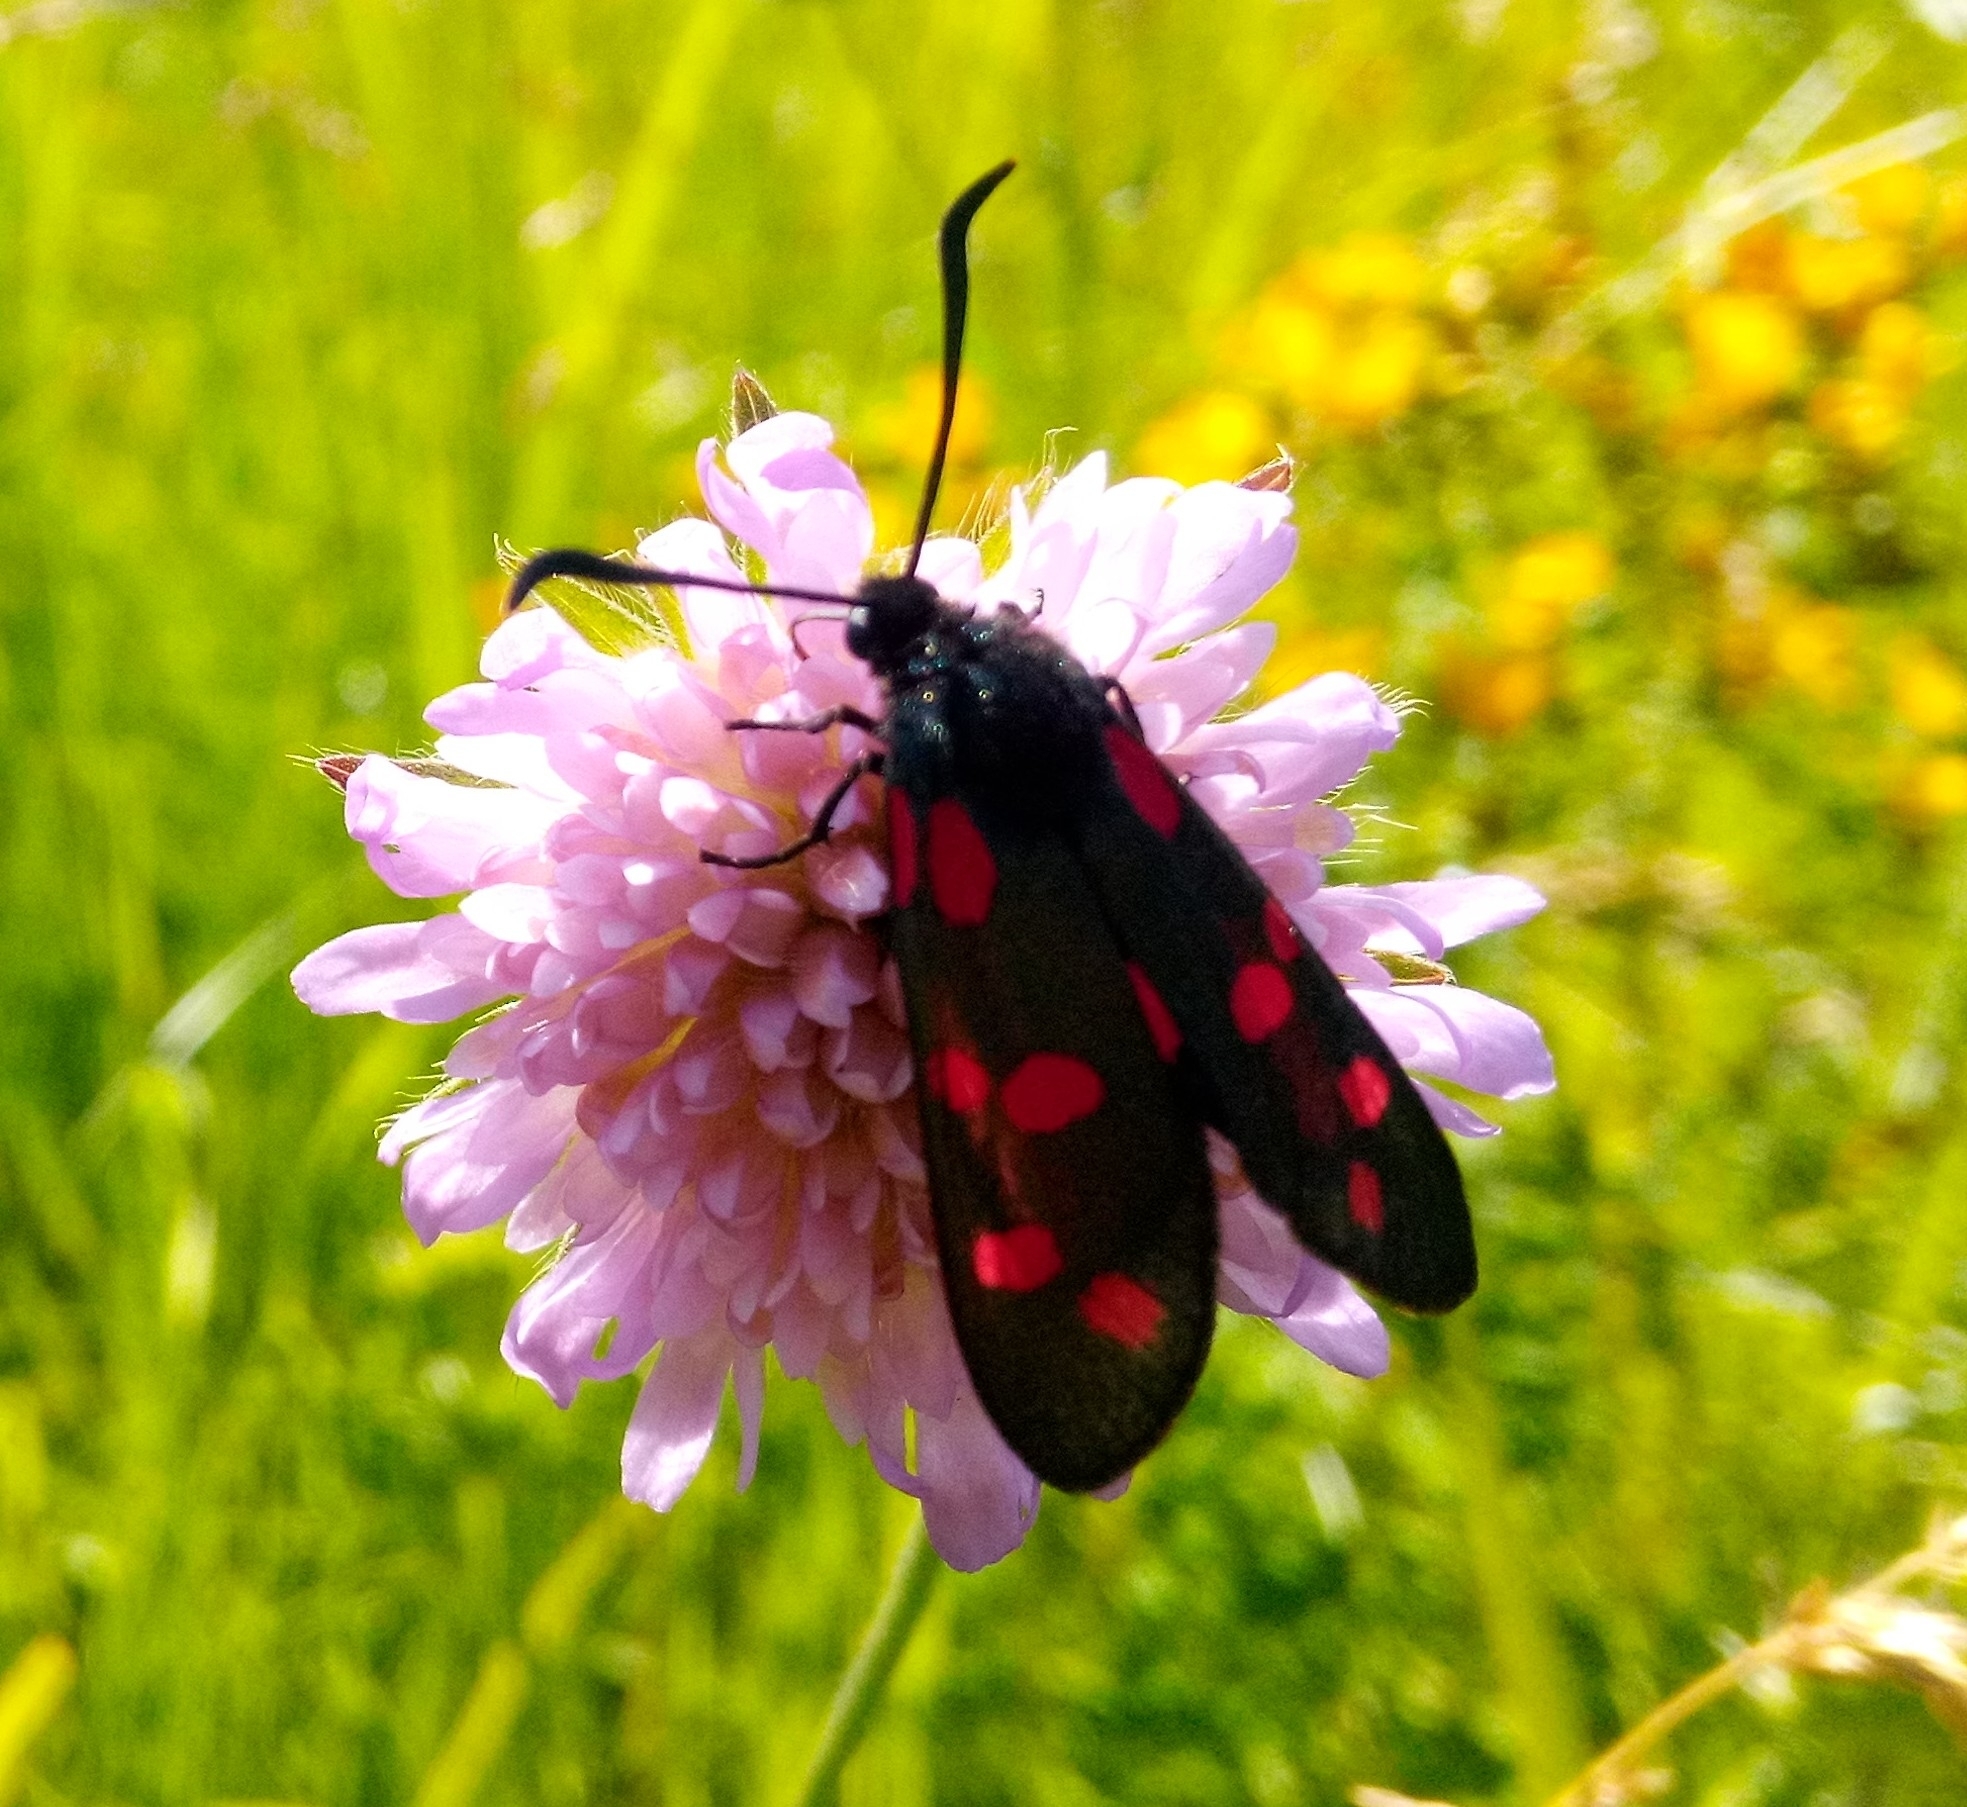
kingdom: Animalia
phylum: Arthropoda
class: Insecta
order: Lepidoptera
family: Zygaenidae
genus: Zygaena
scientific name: Zygaena filipendulae
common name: Six-spot burnet
